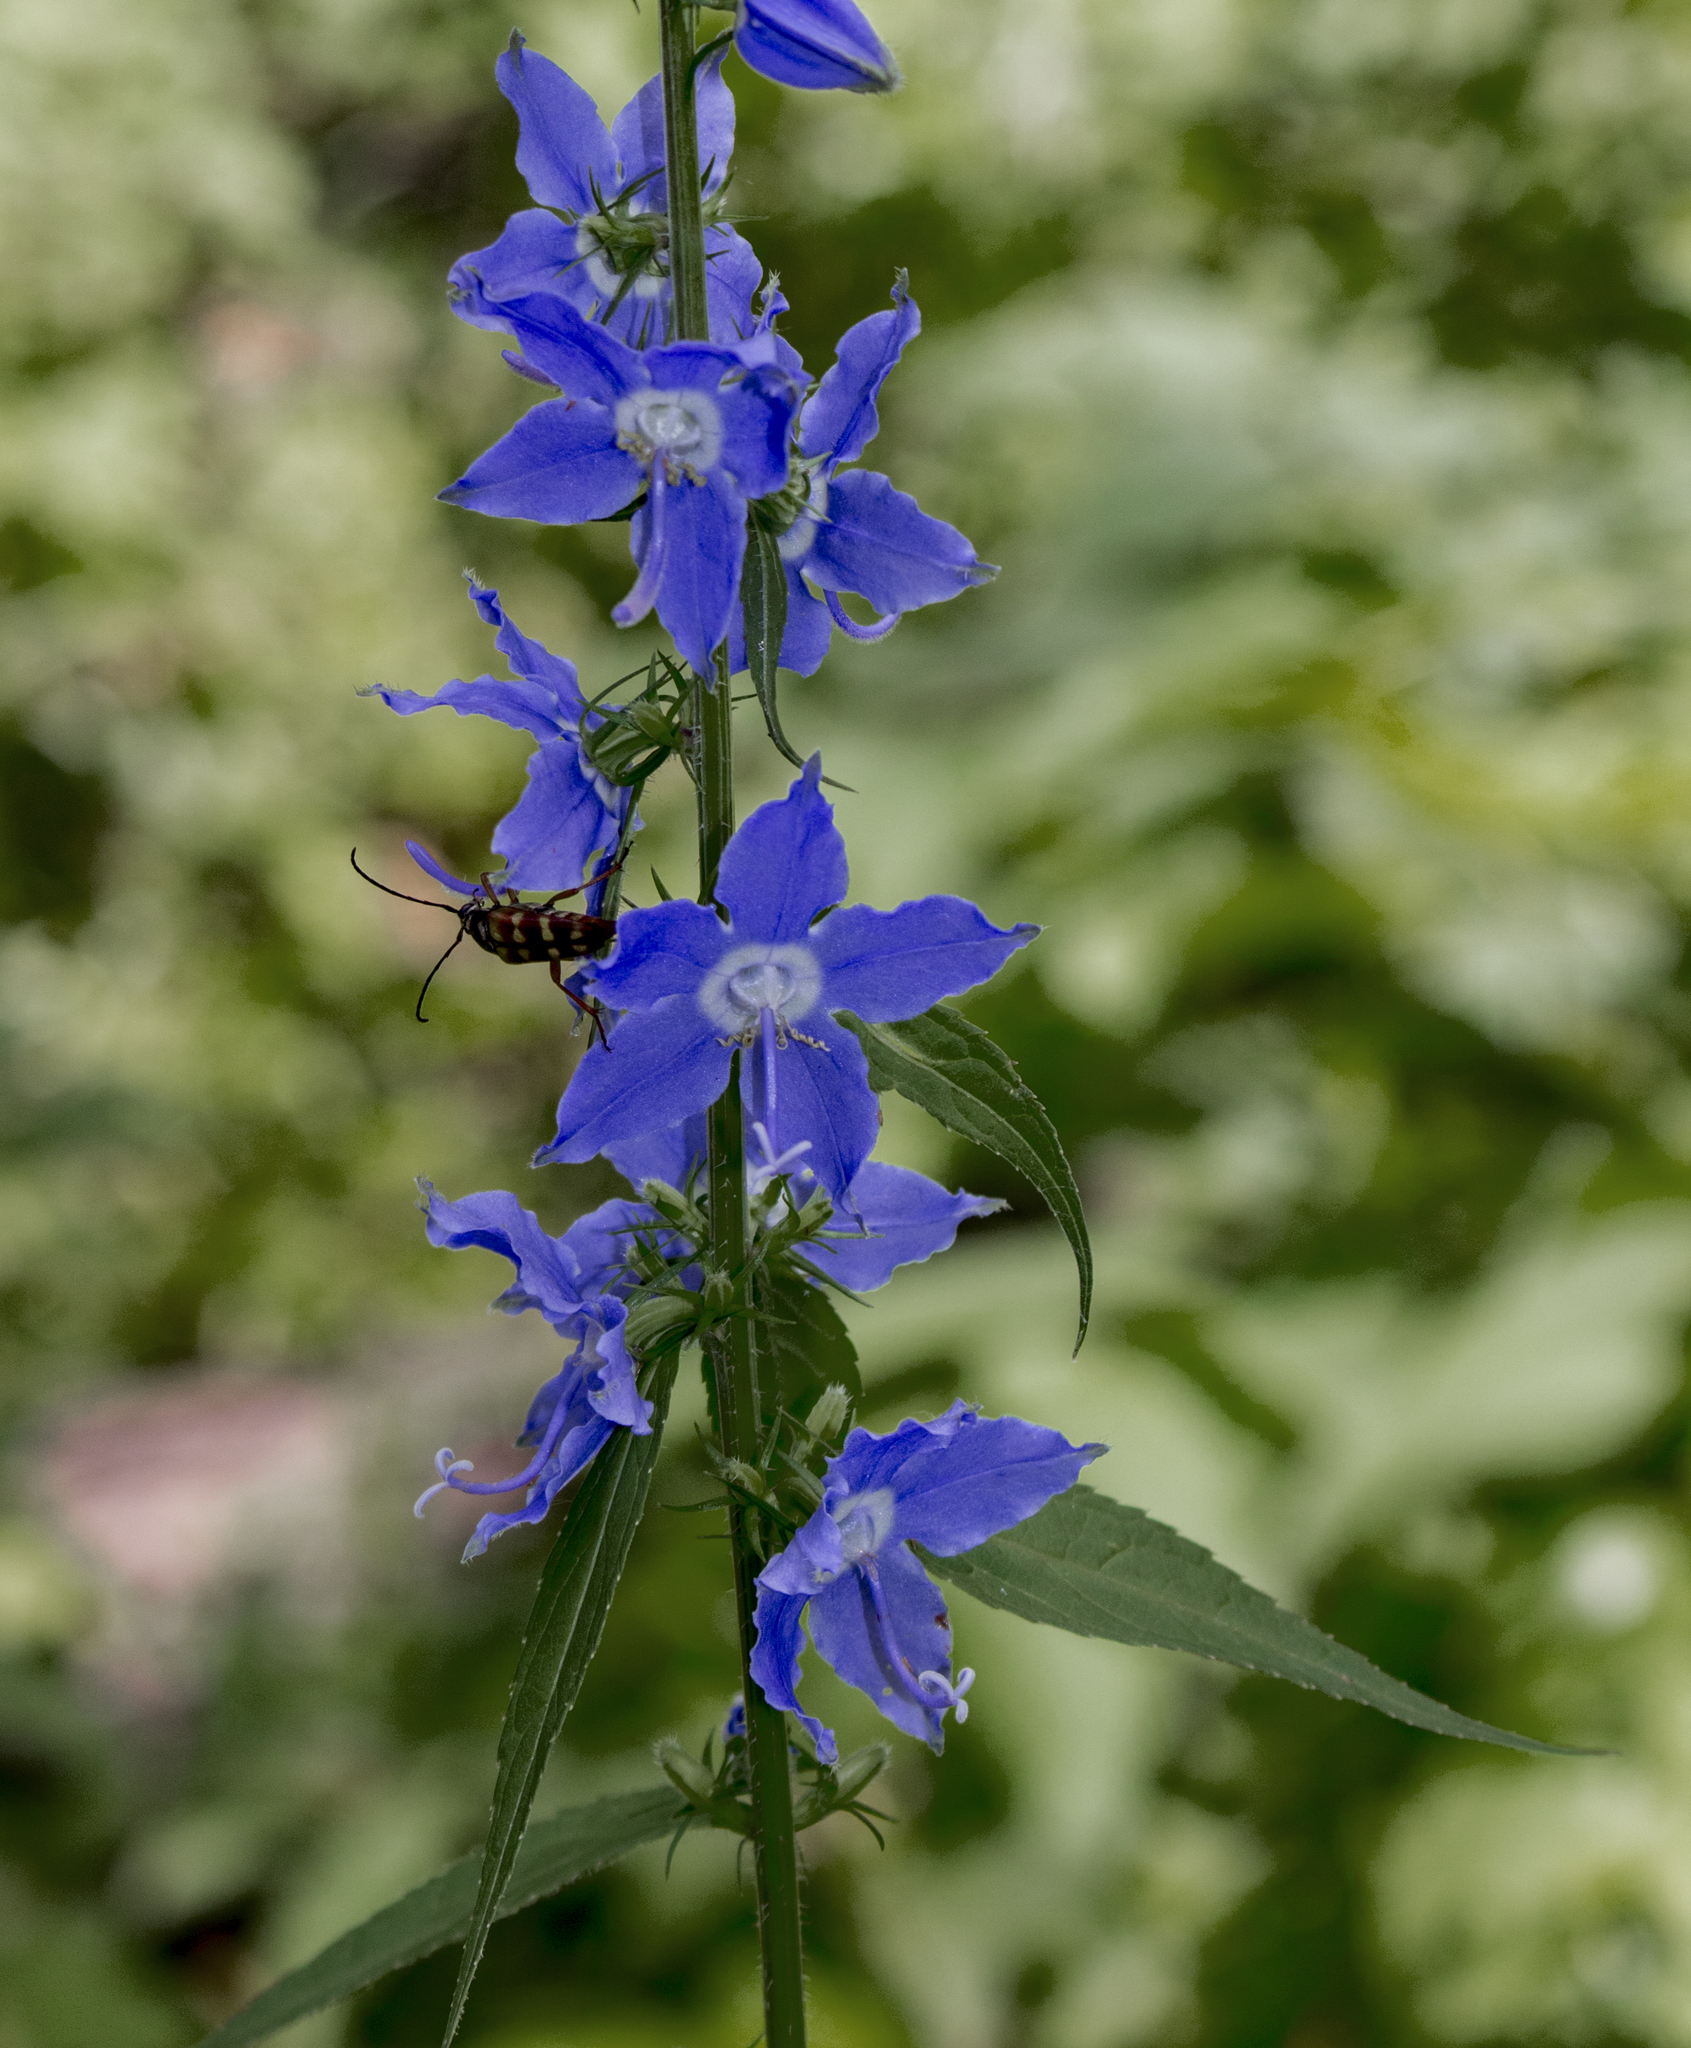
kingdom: Plantae
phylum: Tracheophyta
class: Magnoliopsida
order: Asterales
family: Campanulaceae
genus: Campanulastrum
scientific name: Campanulastrum americanum
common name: American bellflower
